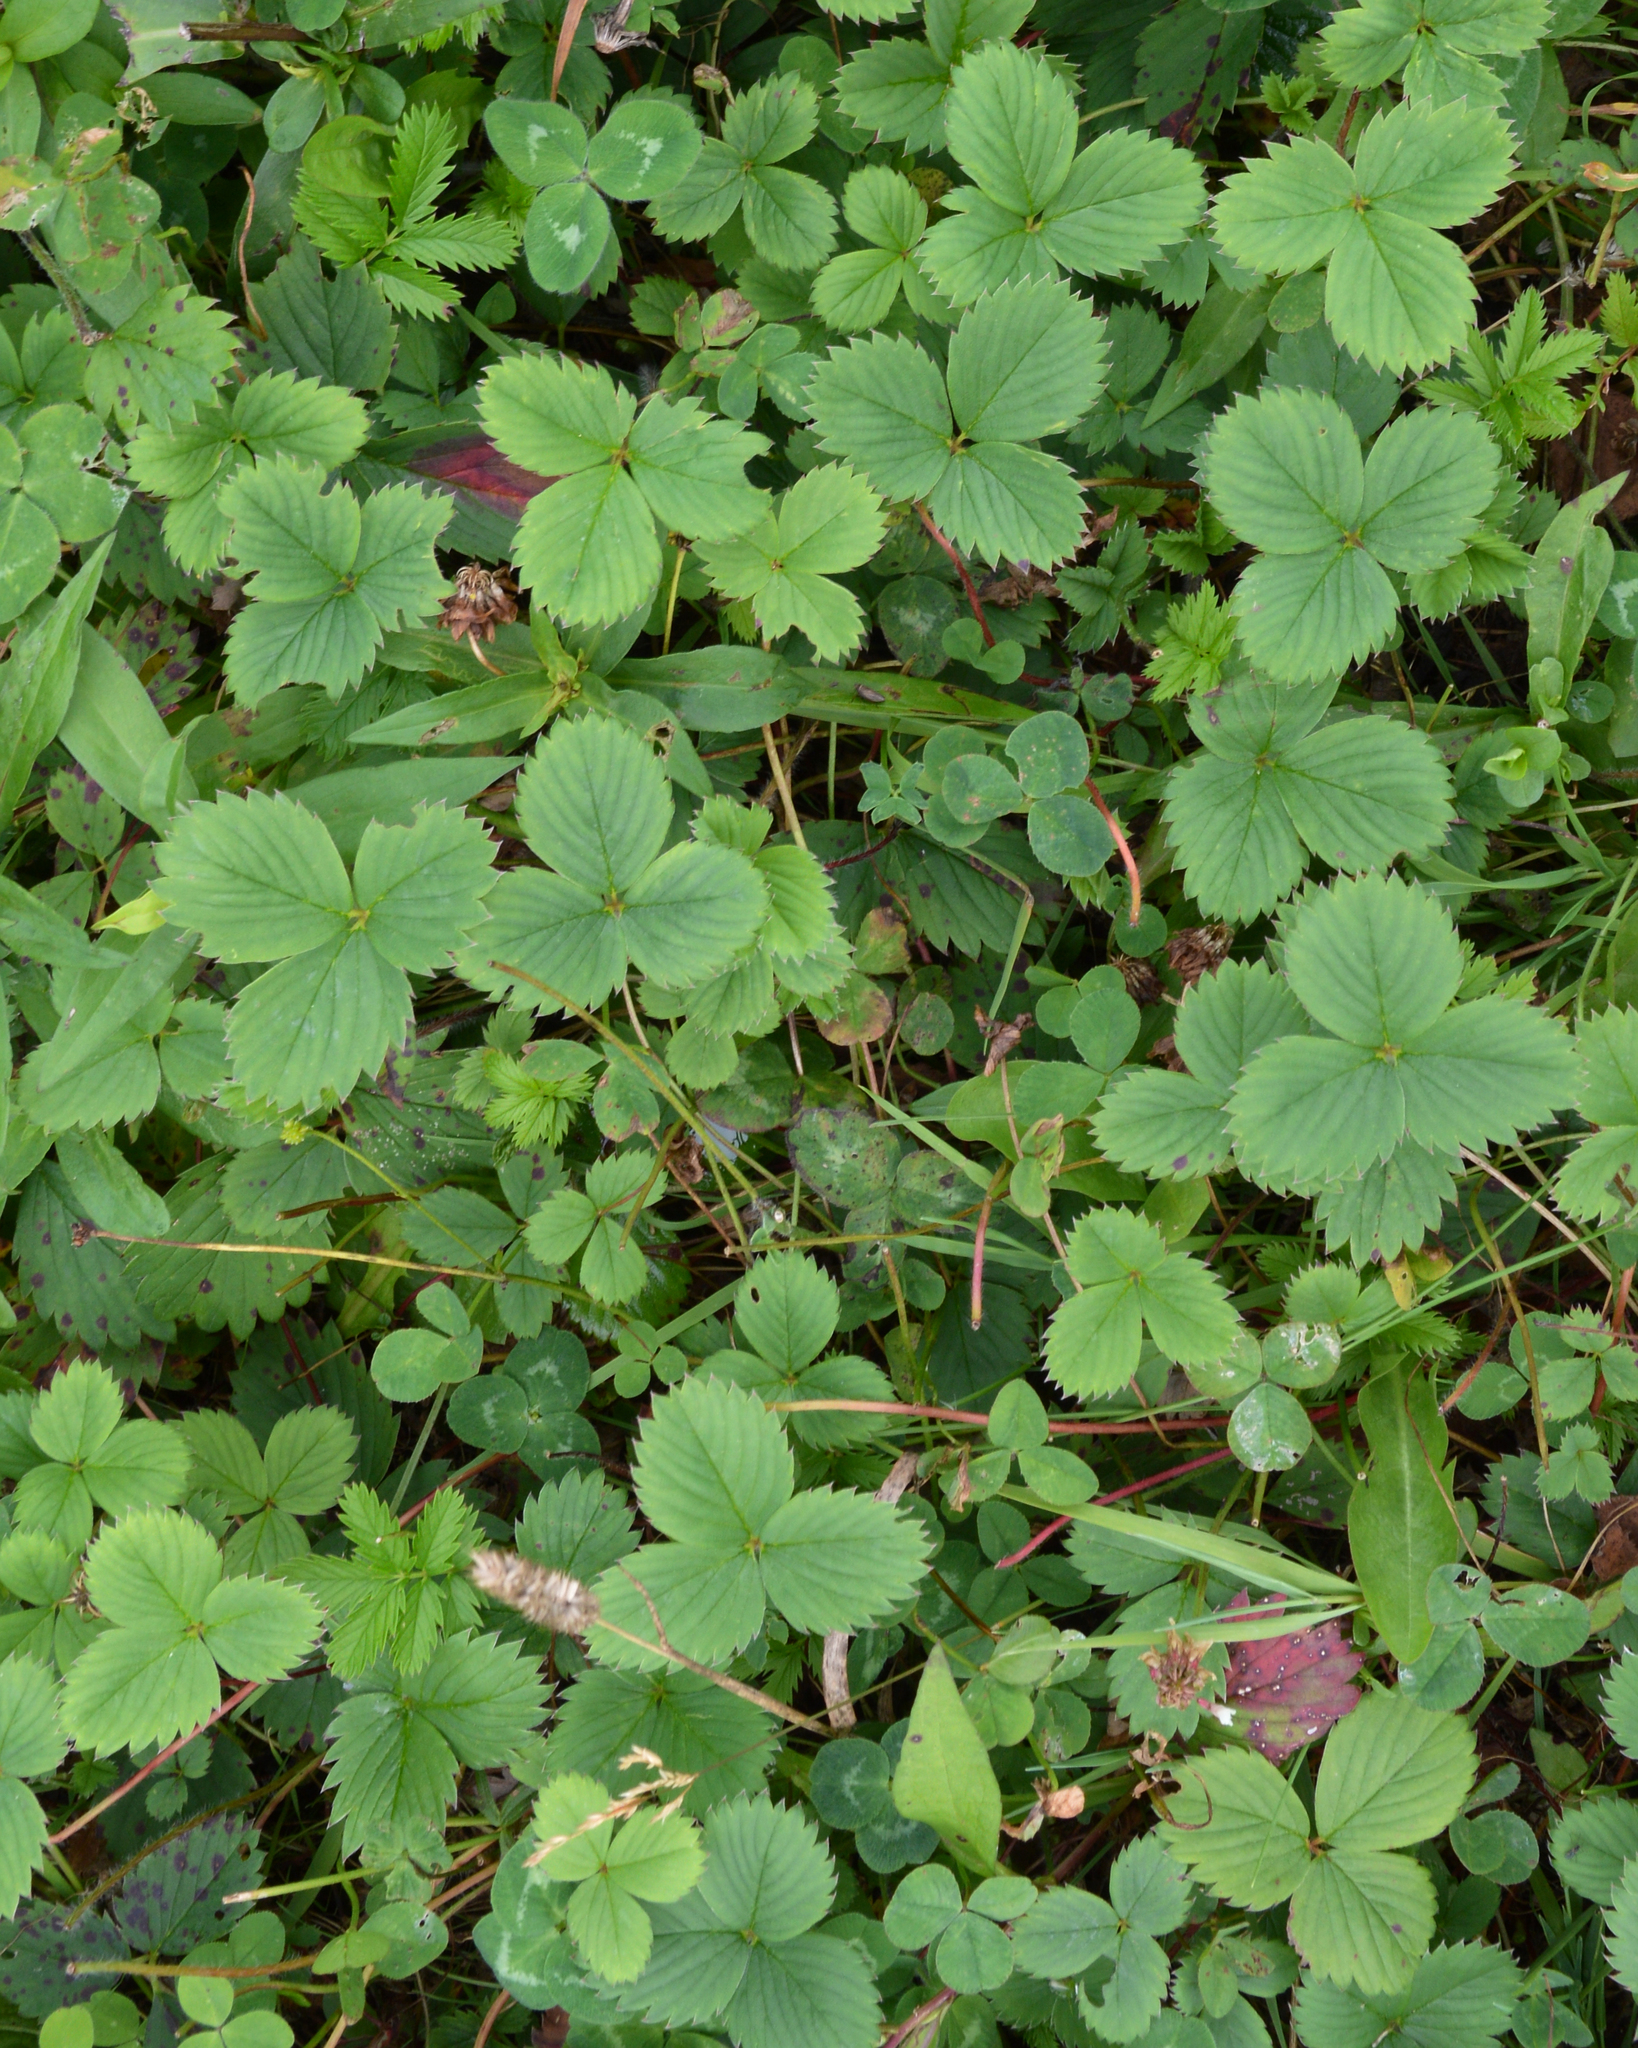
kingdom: Plantae
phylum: Tracheophyta
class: Magnoliopsida
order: Rosales
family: Rosaceae
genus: Fragaria
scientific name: Fragaria virginiana
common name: Thickleaved wild strawberry
